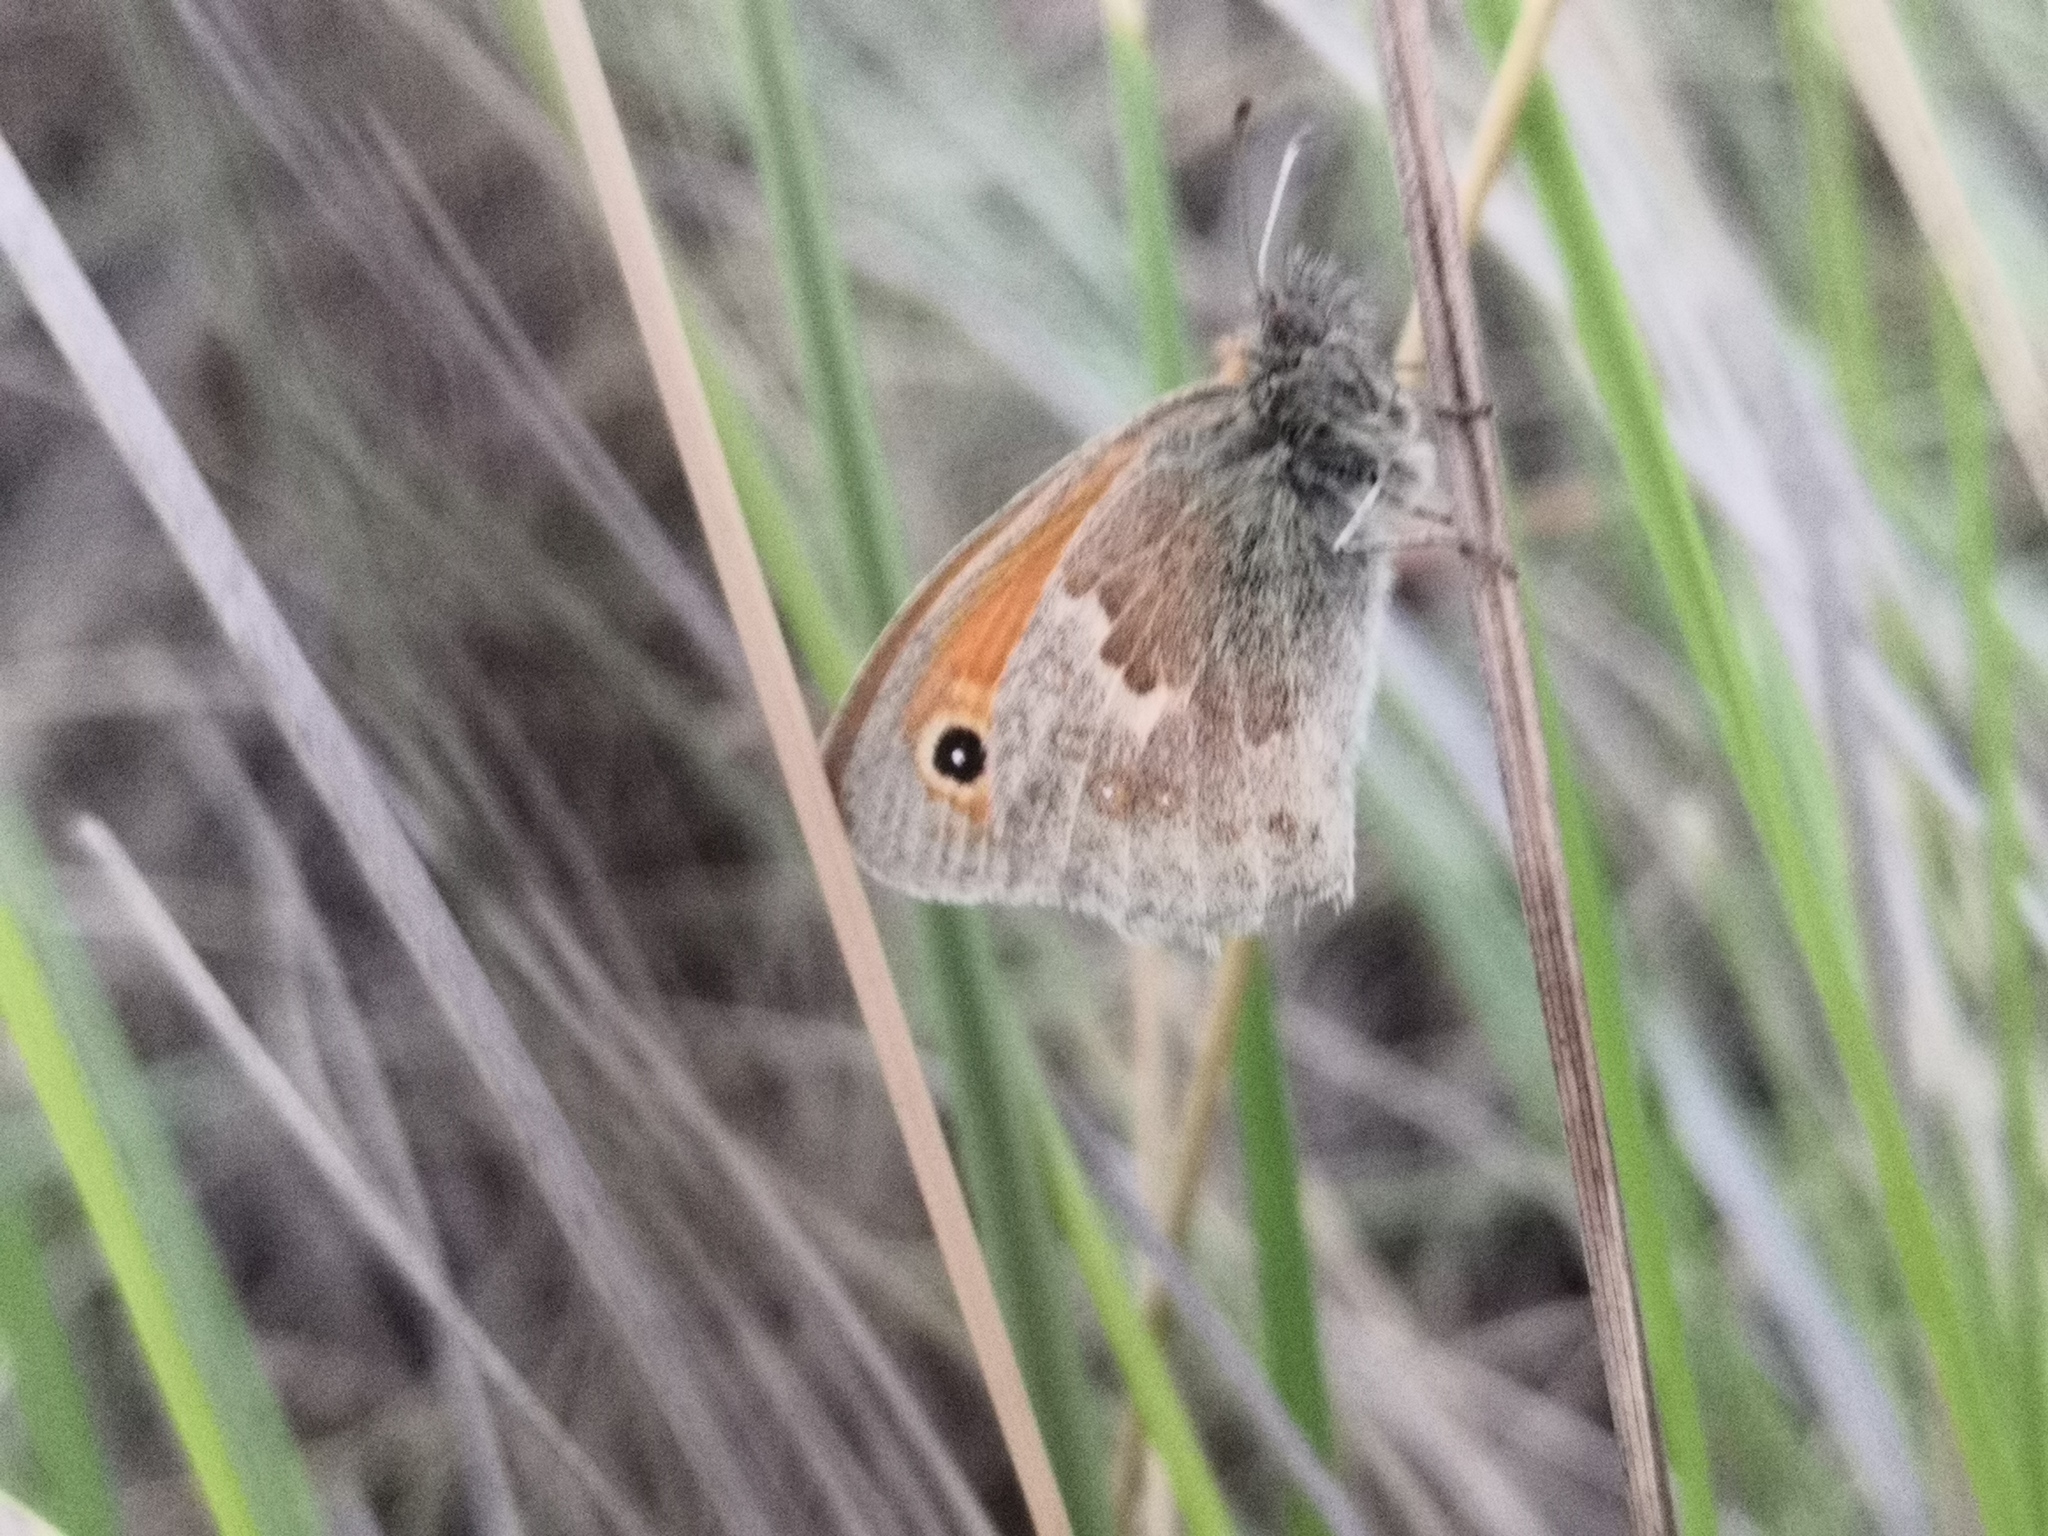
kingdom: Animalia
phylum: Arthropoda
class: Insecta
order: Lepidoptera
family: Nymphalidae
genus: Coenonympha
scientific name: Coenonympha pamphilus
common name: Small heath
